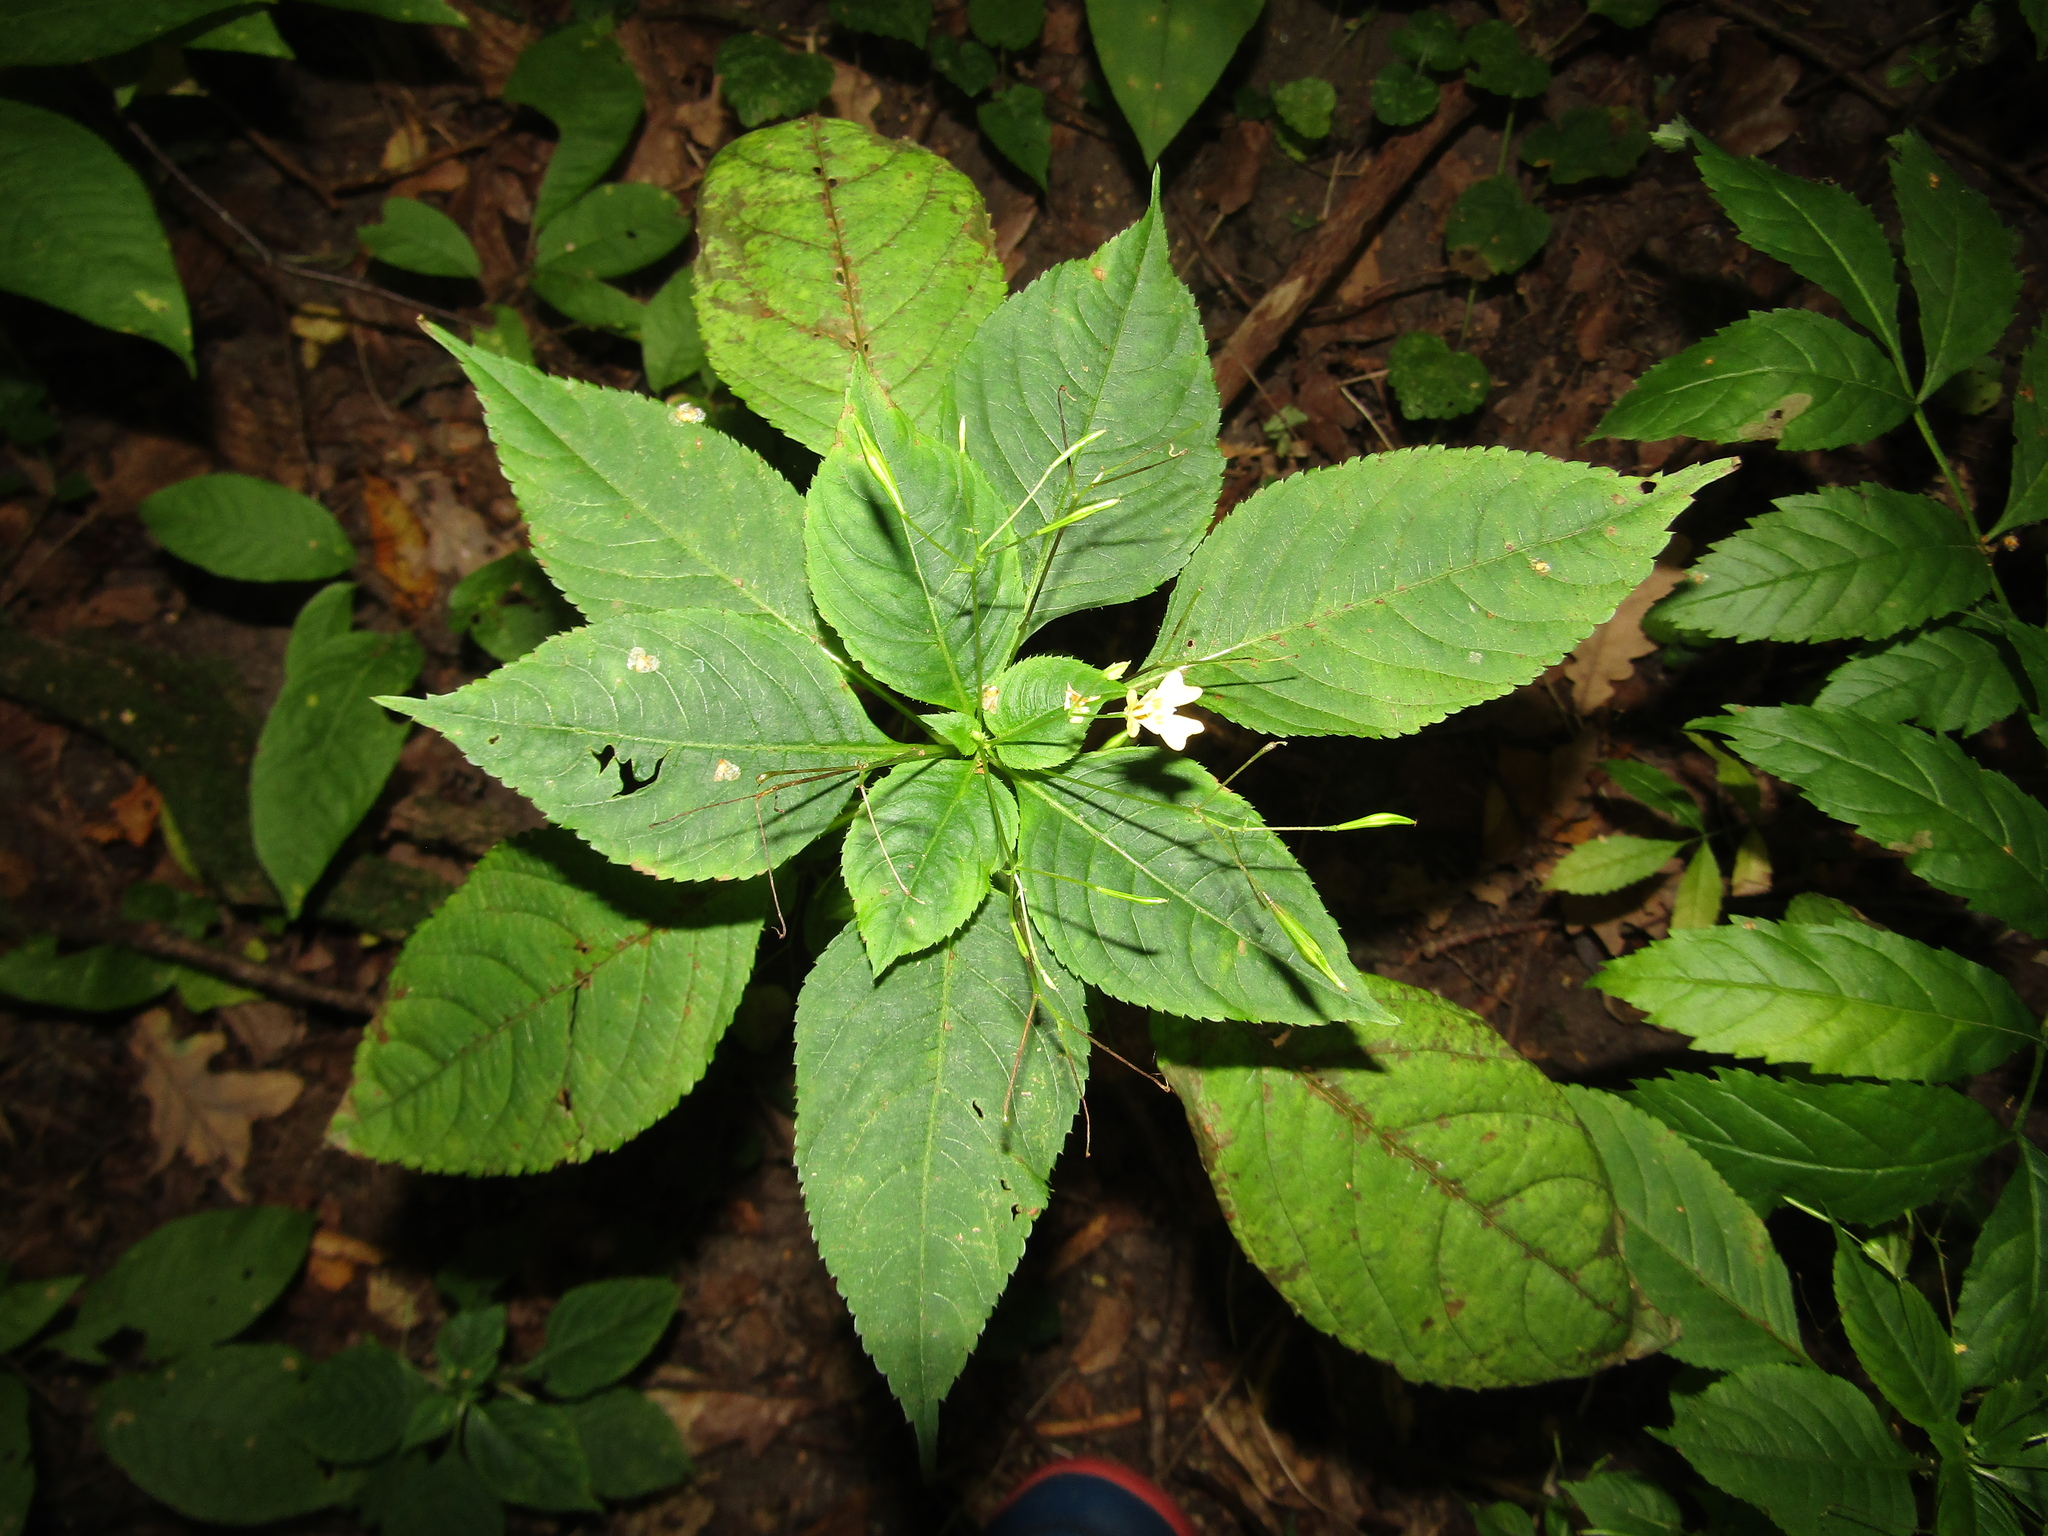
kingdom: Plantae
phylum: Tracheophyta
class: Magnoliopsida
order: Ericales
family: Balsaminaceae
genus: Impatiens
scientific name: Impatiens parviflora
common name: Small balsam
